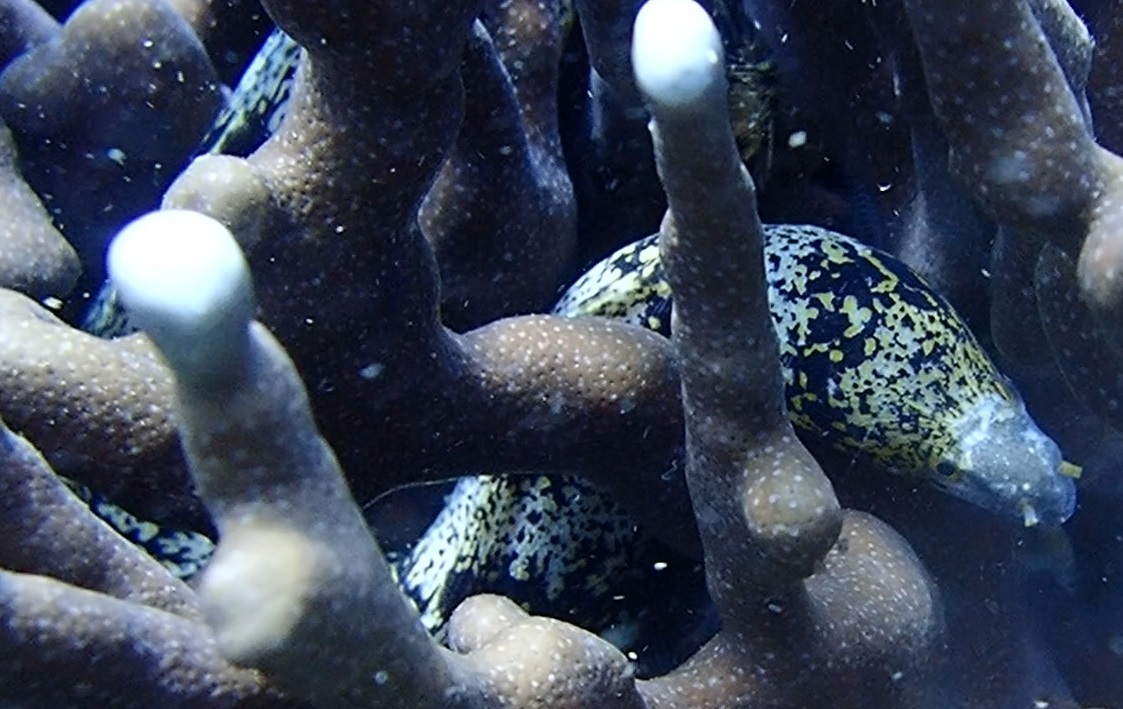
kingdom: Animalia
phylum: Chordata
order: Anguilliformes
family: Muraenidae
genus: Echidna
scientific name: Echidna nebulosa
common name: Snowflake moray
